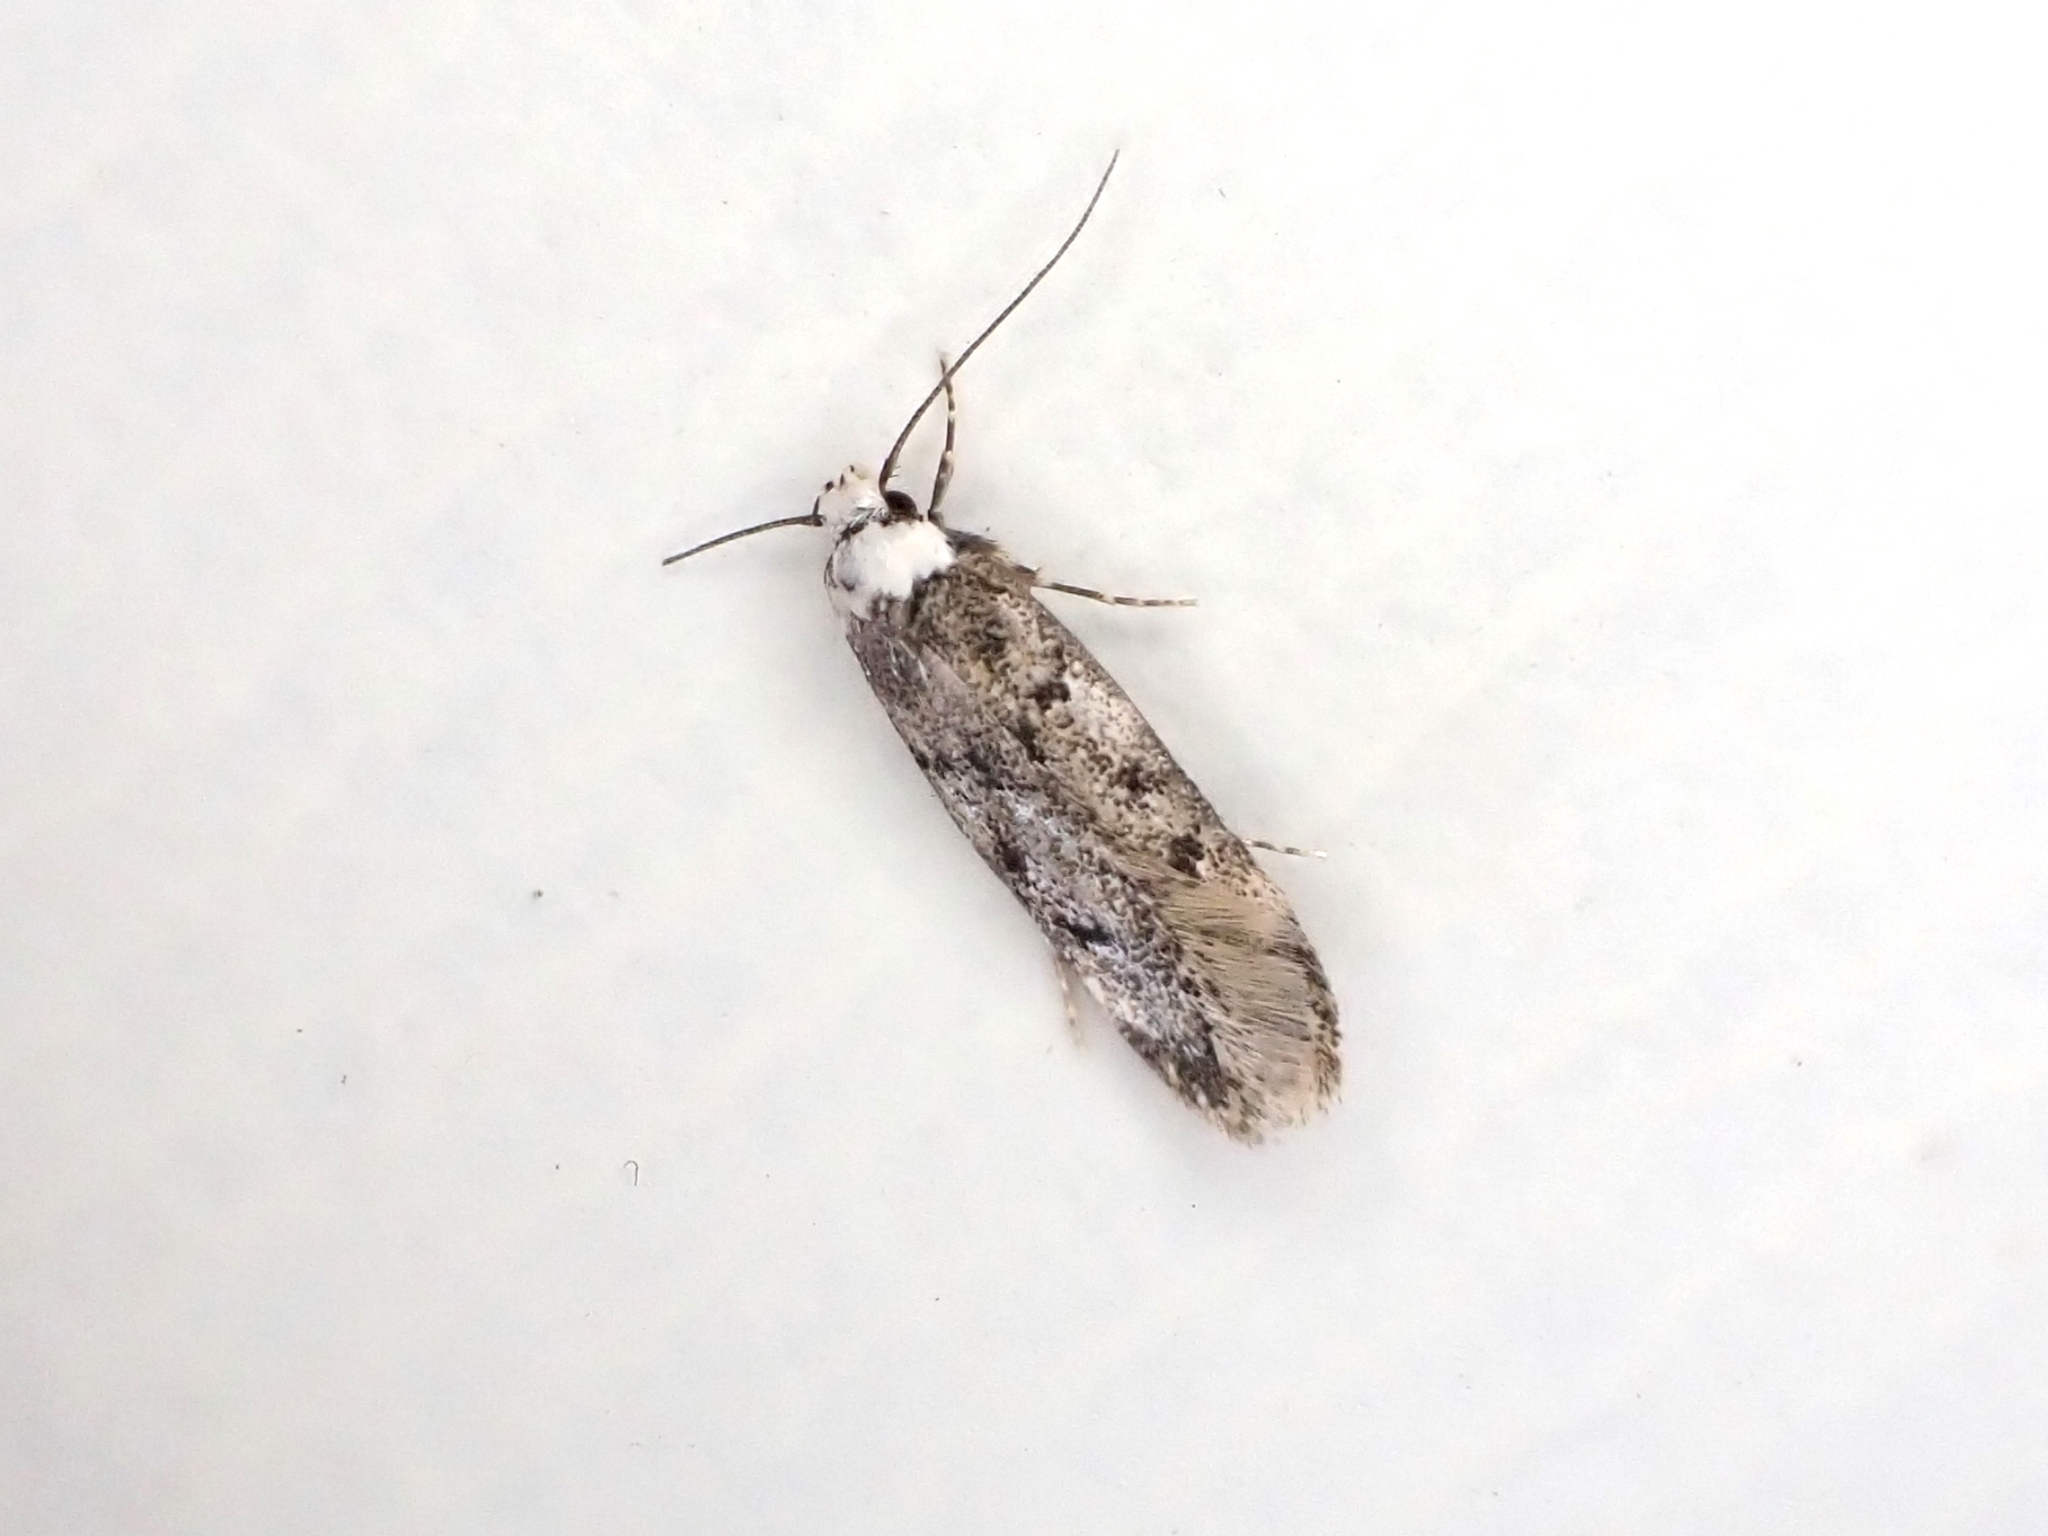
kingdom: Animalia
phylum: Arthropoda
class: Insecta
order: Lepidoptera
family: Oecophoridae
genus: Endrosis
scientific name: Endrosis sarcitrella
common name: White-shouldered house moth
